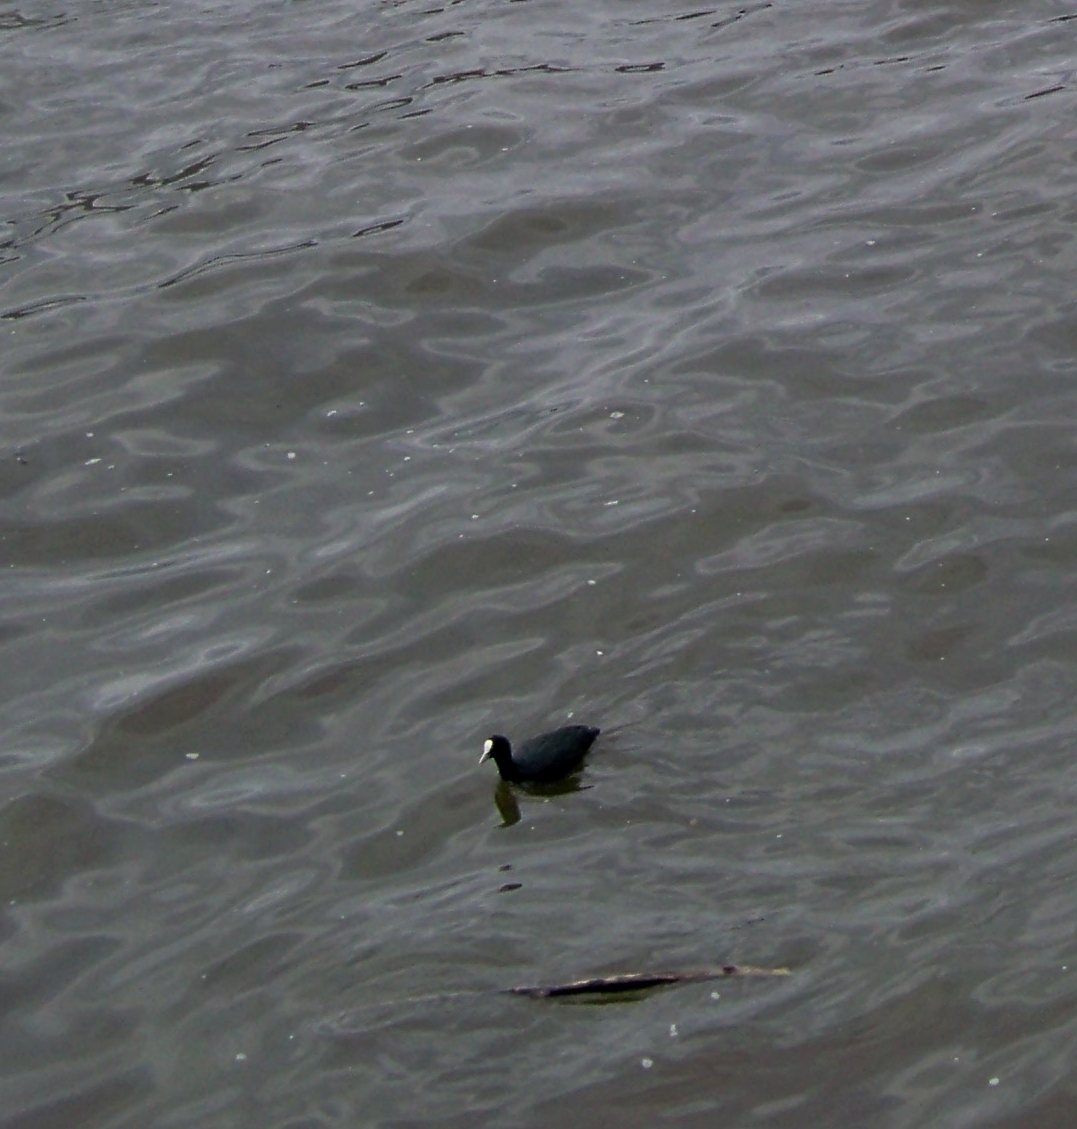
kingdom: Animalia
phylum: Chordata
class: Aves
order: Gruiformes
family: Rallidae
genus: Fulica
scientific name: Fulica atra
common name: Eurasian coot
